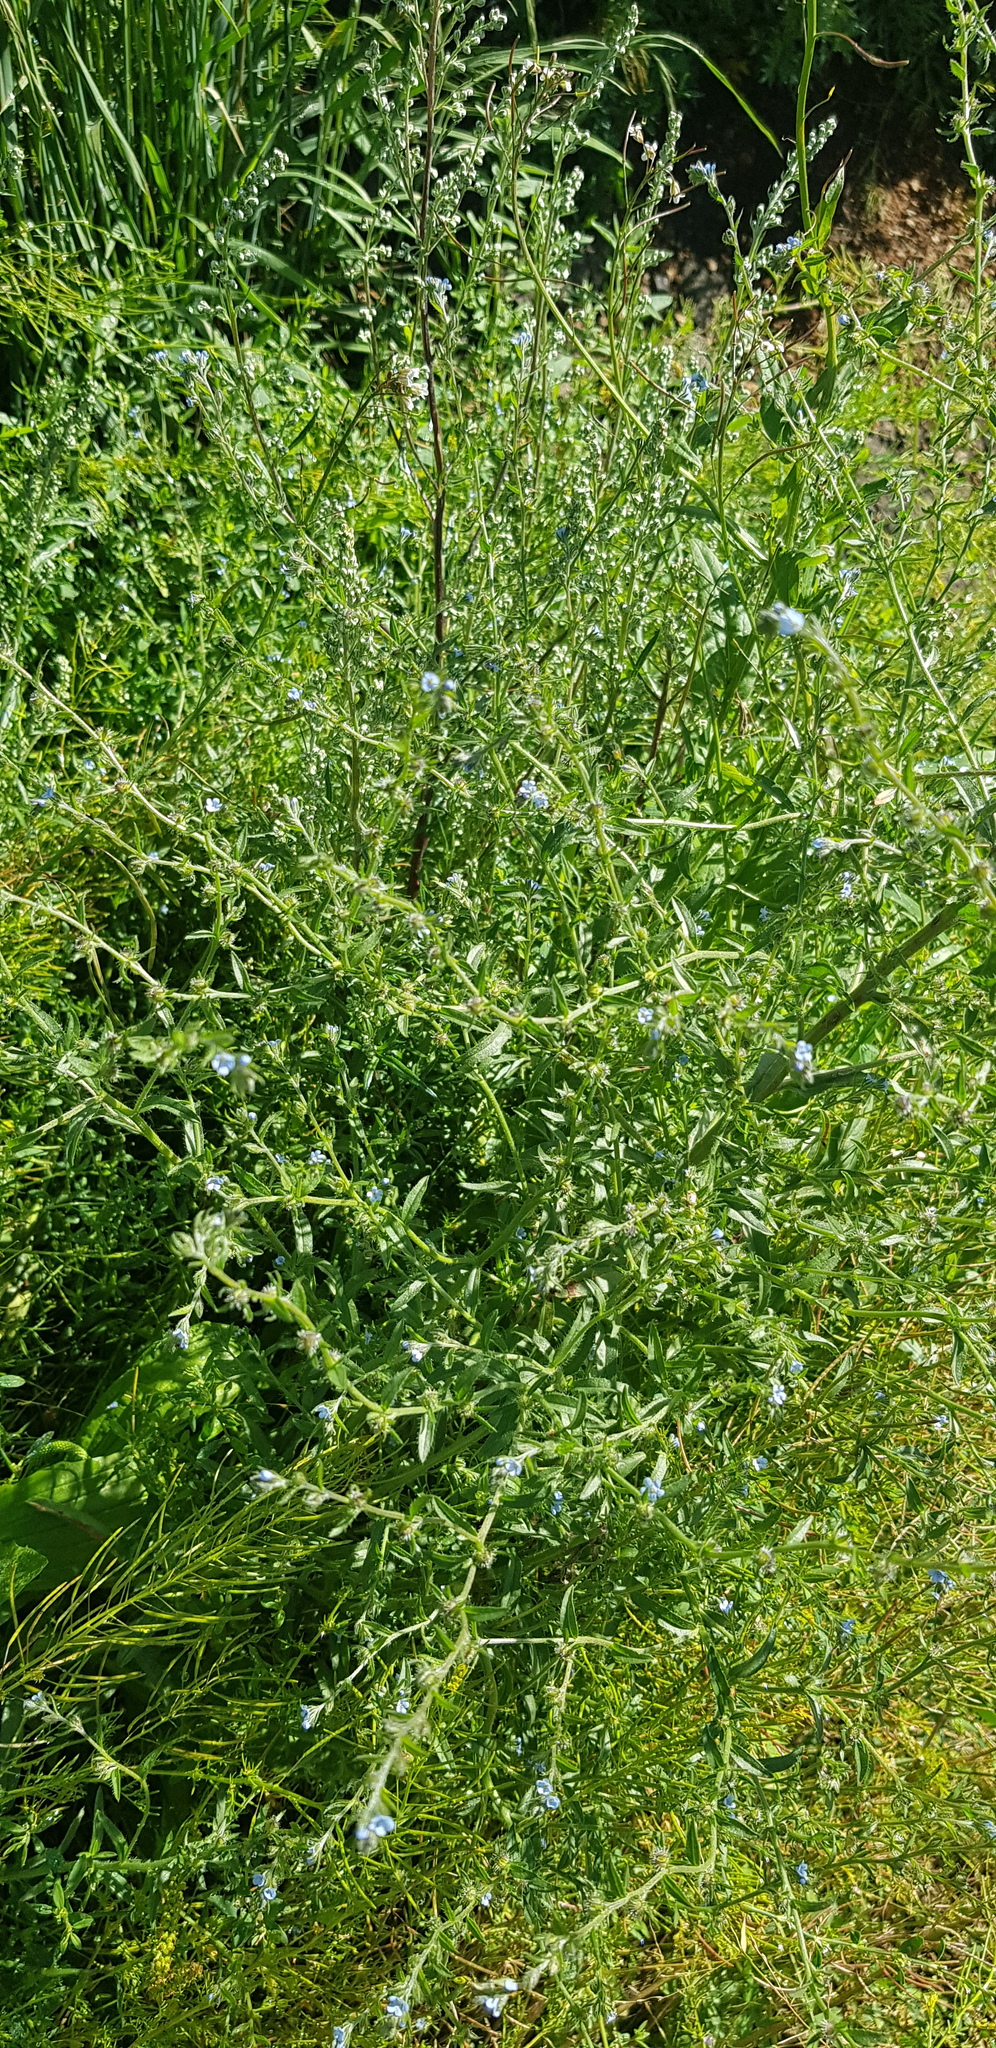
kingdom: Plantae
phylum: Tracheophyta
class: Magnoliopsida
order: Boraginales
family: Boraginaceae
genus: Lappula
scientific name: Lappula squarrosa
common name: European stickseed
